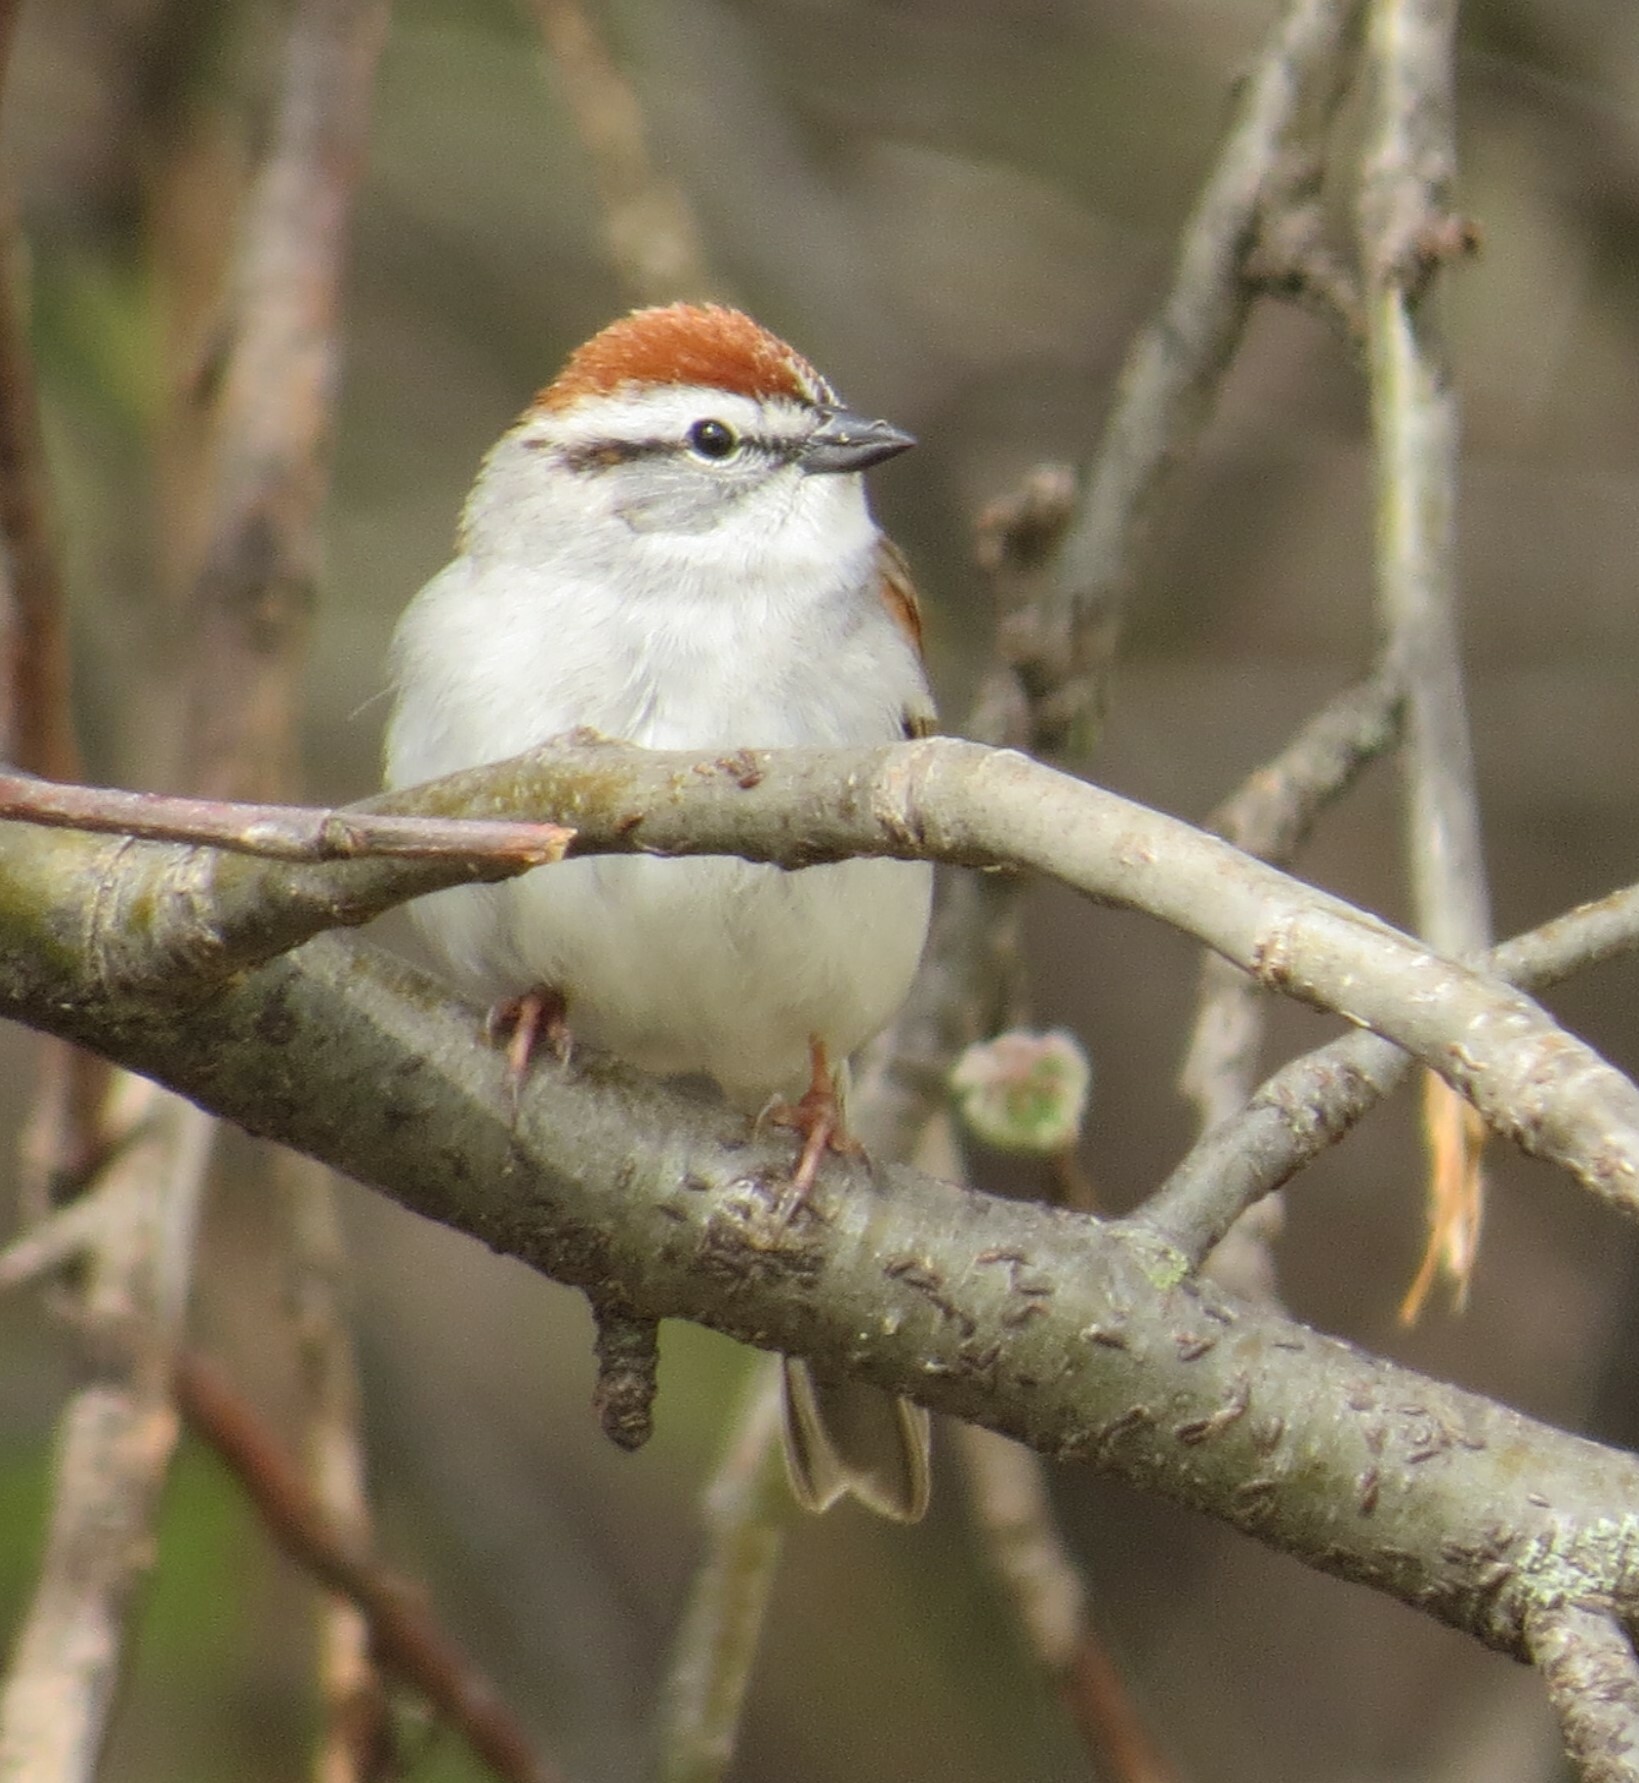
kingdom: Animalia
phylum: Chordata
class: Aves
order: Passeriformes
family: Passerellidae
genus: Spizella
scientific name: Spizella passerina
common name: Chipping sparrow
